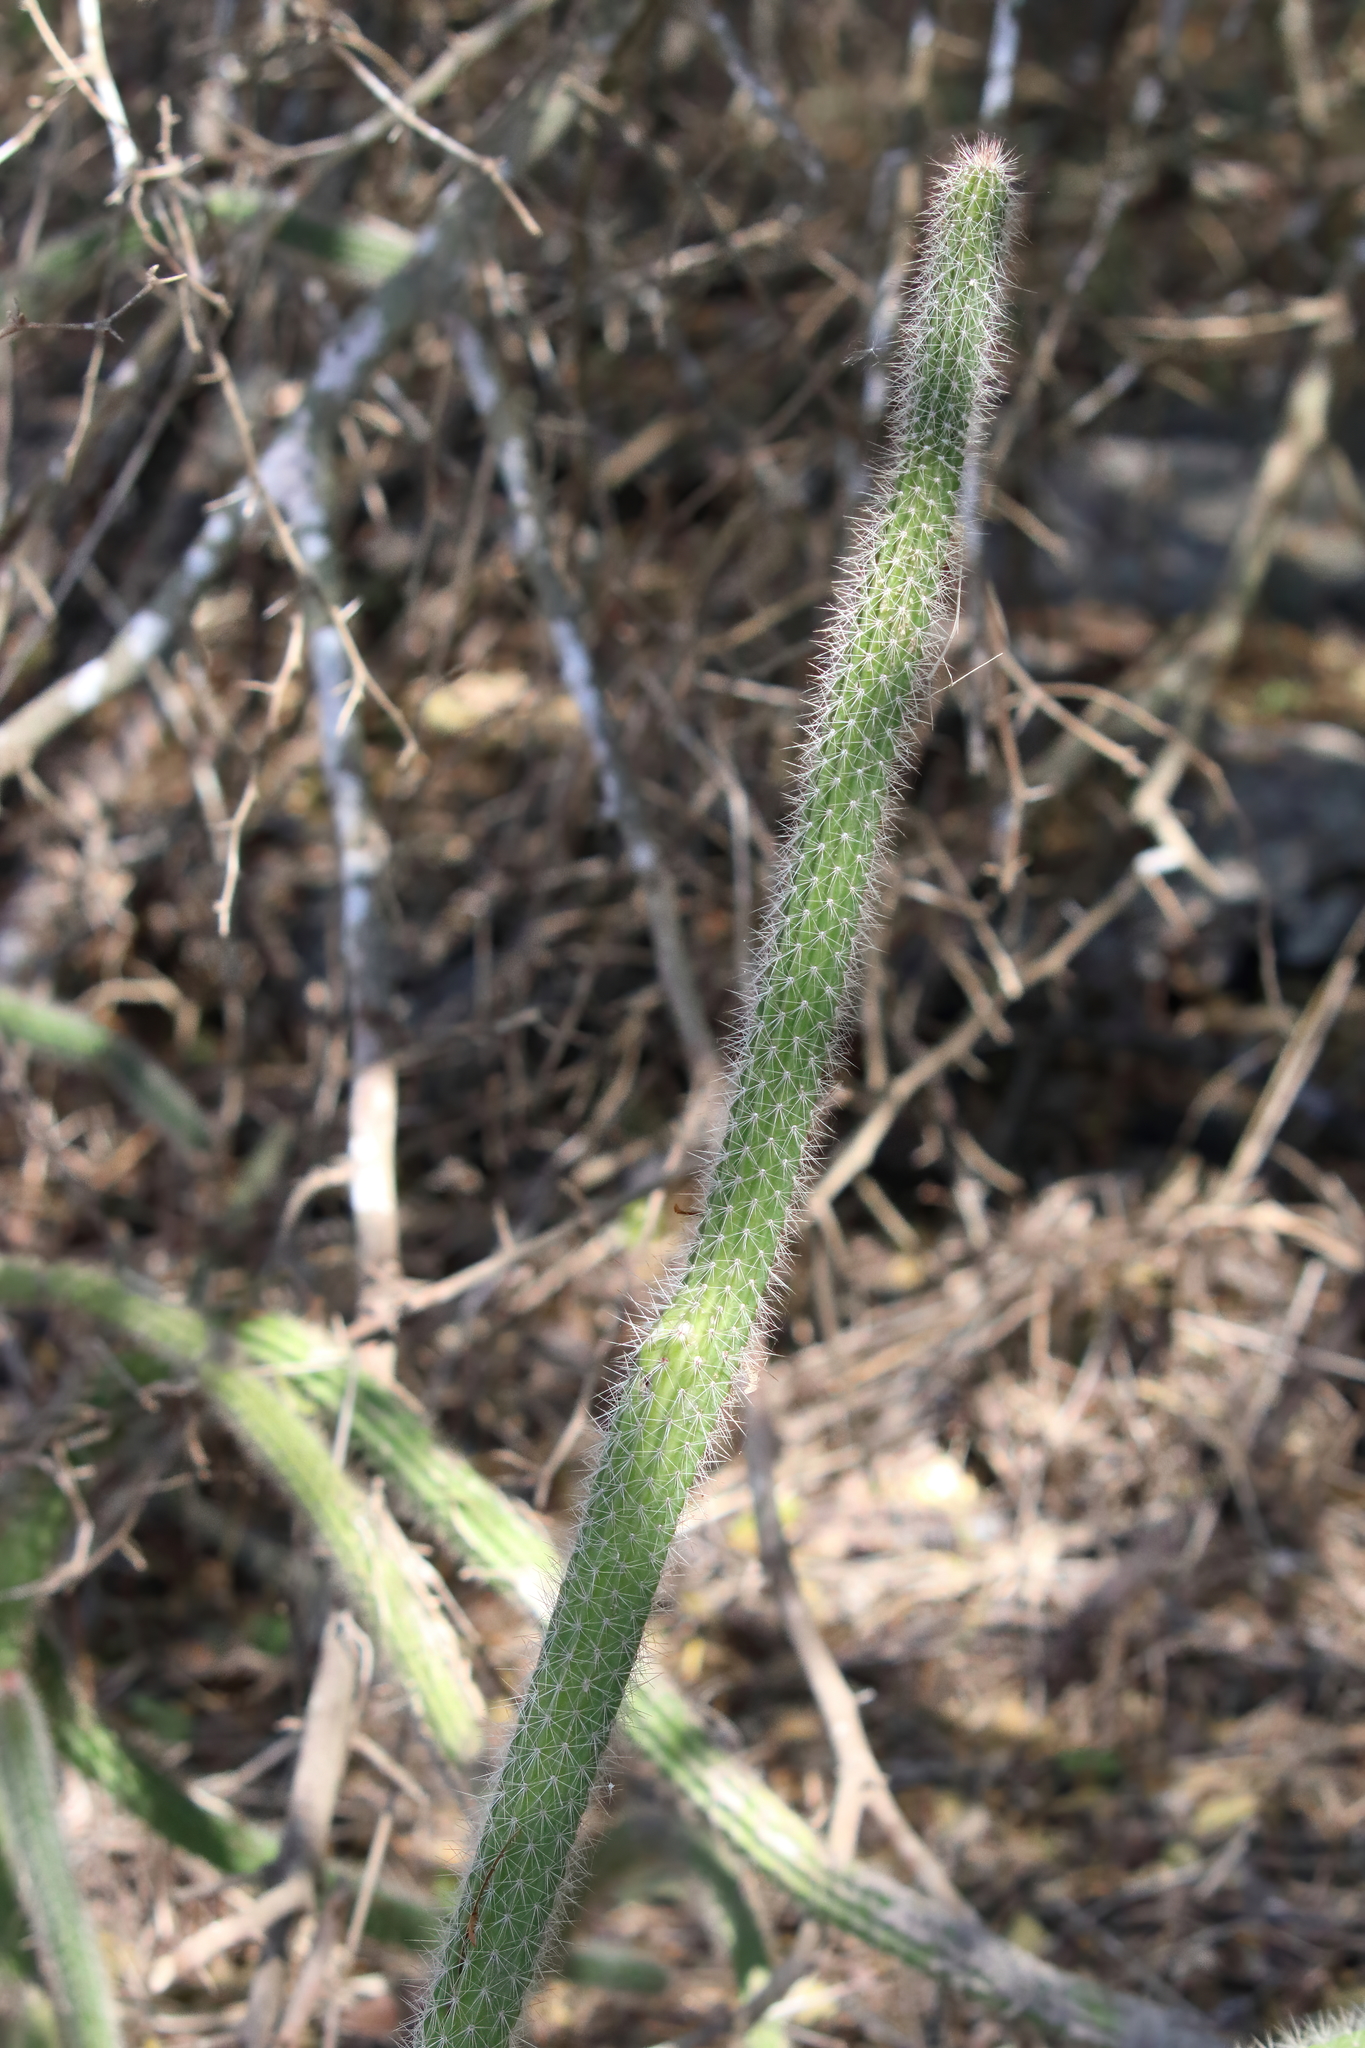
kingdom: Plantae
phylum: Tracheophyta
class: Magnoliopsida
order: Caryophyllales
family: Cactaceae
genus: Peniocereus
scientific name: Peniocereus serpentinus
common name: Serpent cactus
